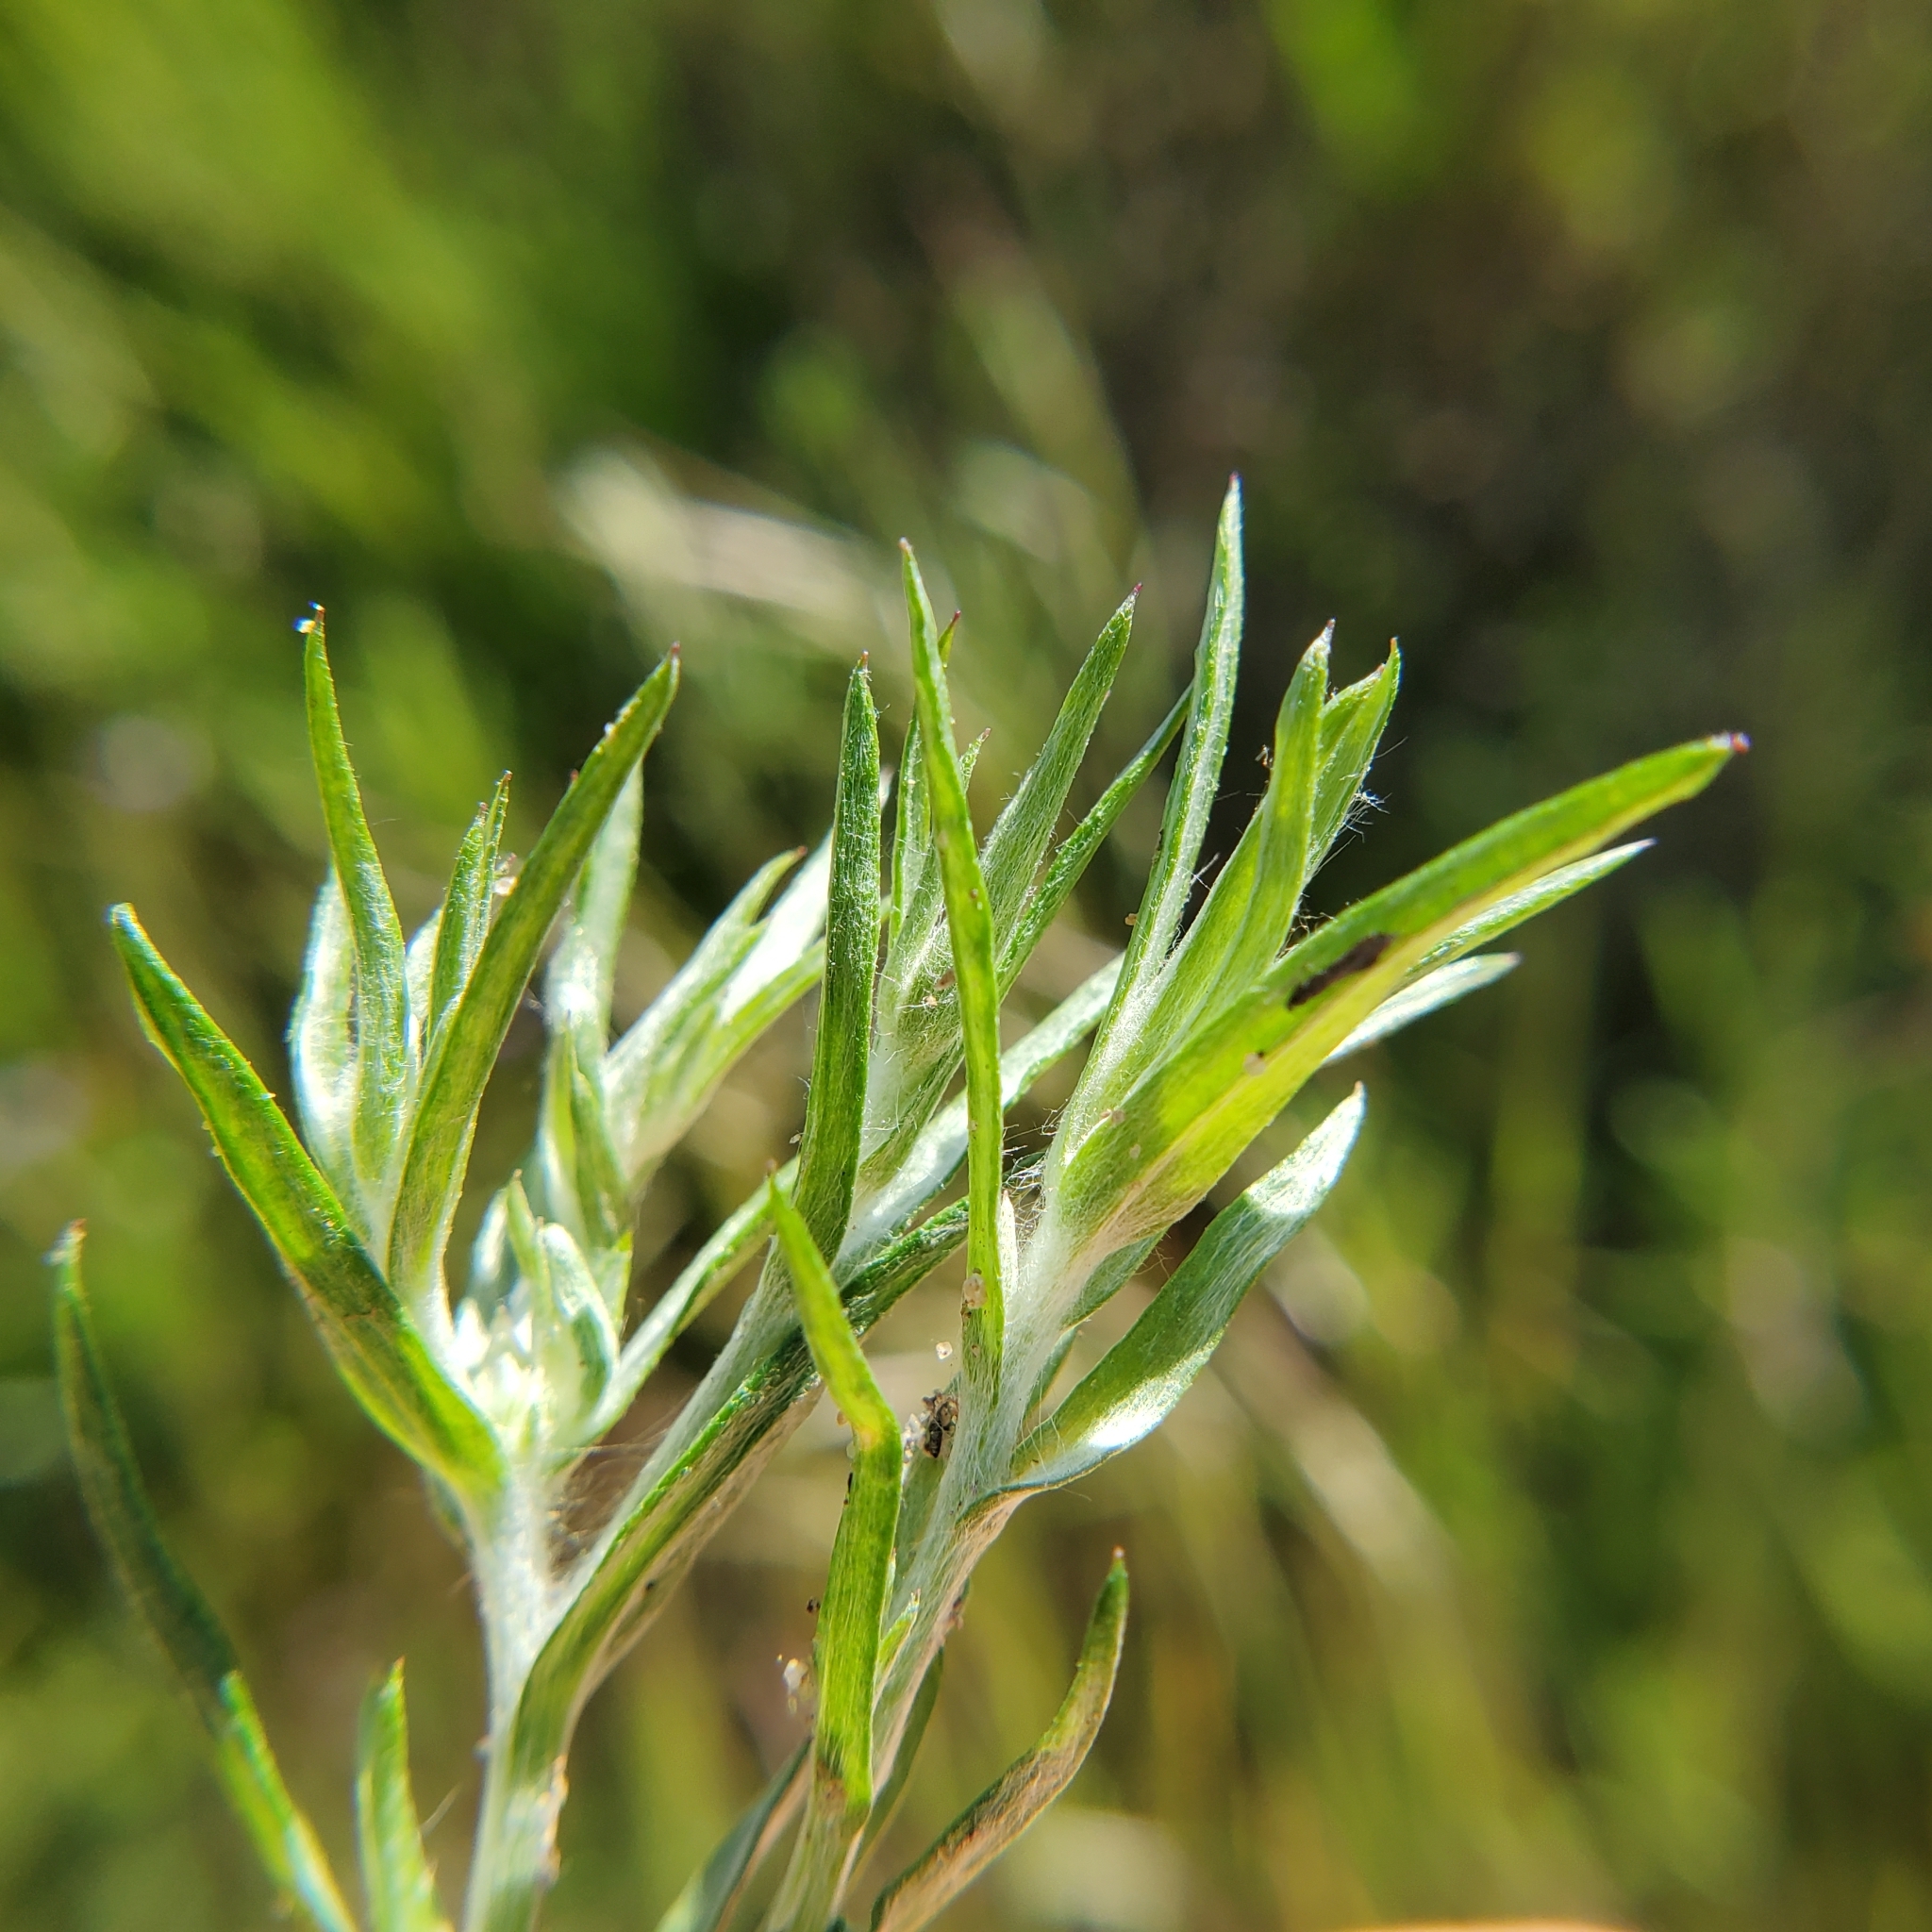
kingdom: Plantae
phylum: Tracheophyta
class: Magnoliopsida
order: Asterales
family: Asteraceae
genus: Logfia
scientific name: Logfia gallica
